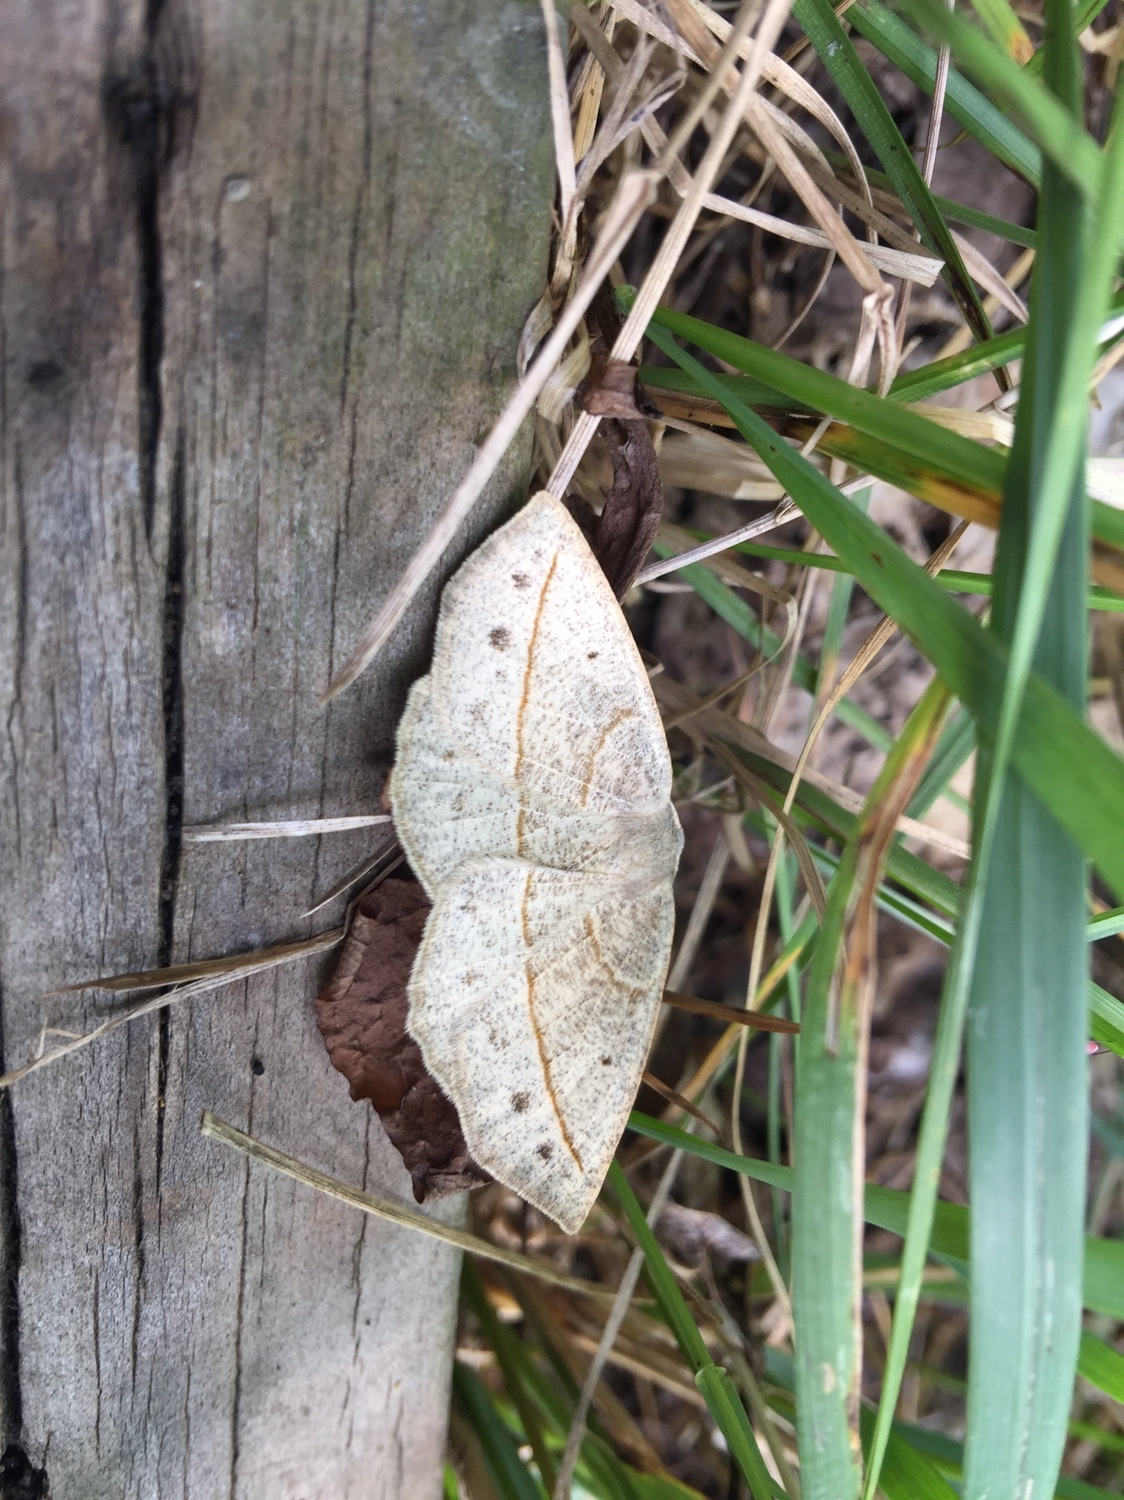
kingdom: Animalia
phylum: Arthropoda
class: Insecta
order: Lepidoptera
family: Geometridae
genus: Eusarca
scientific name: Eusarca confusaria
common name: Confused eusarca
